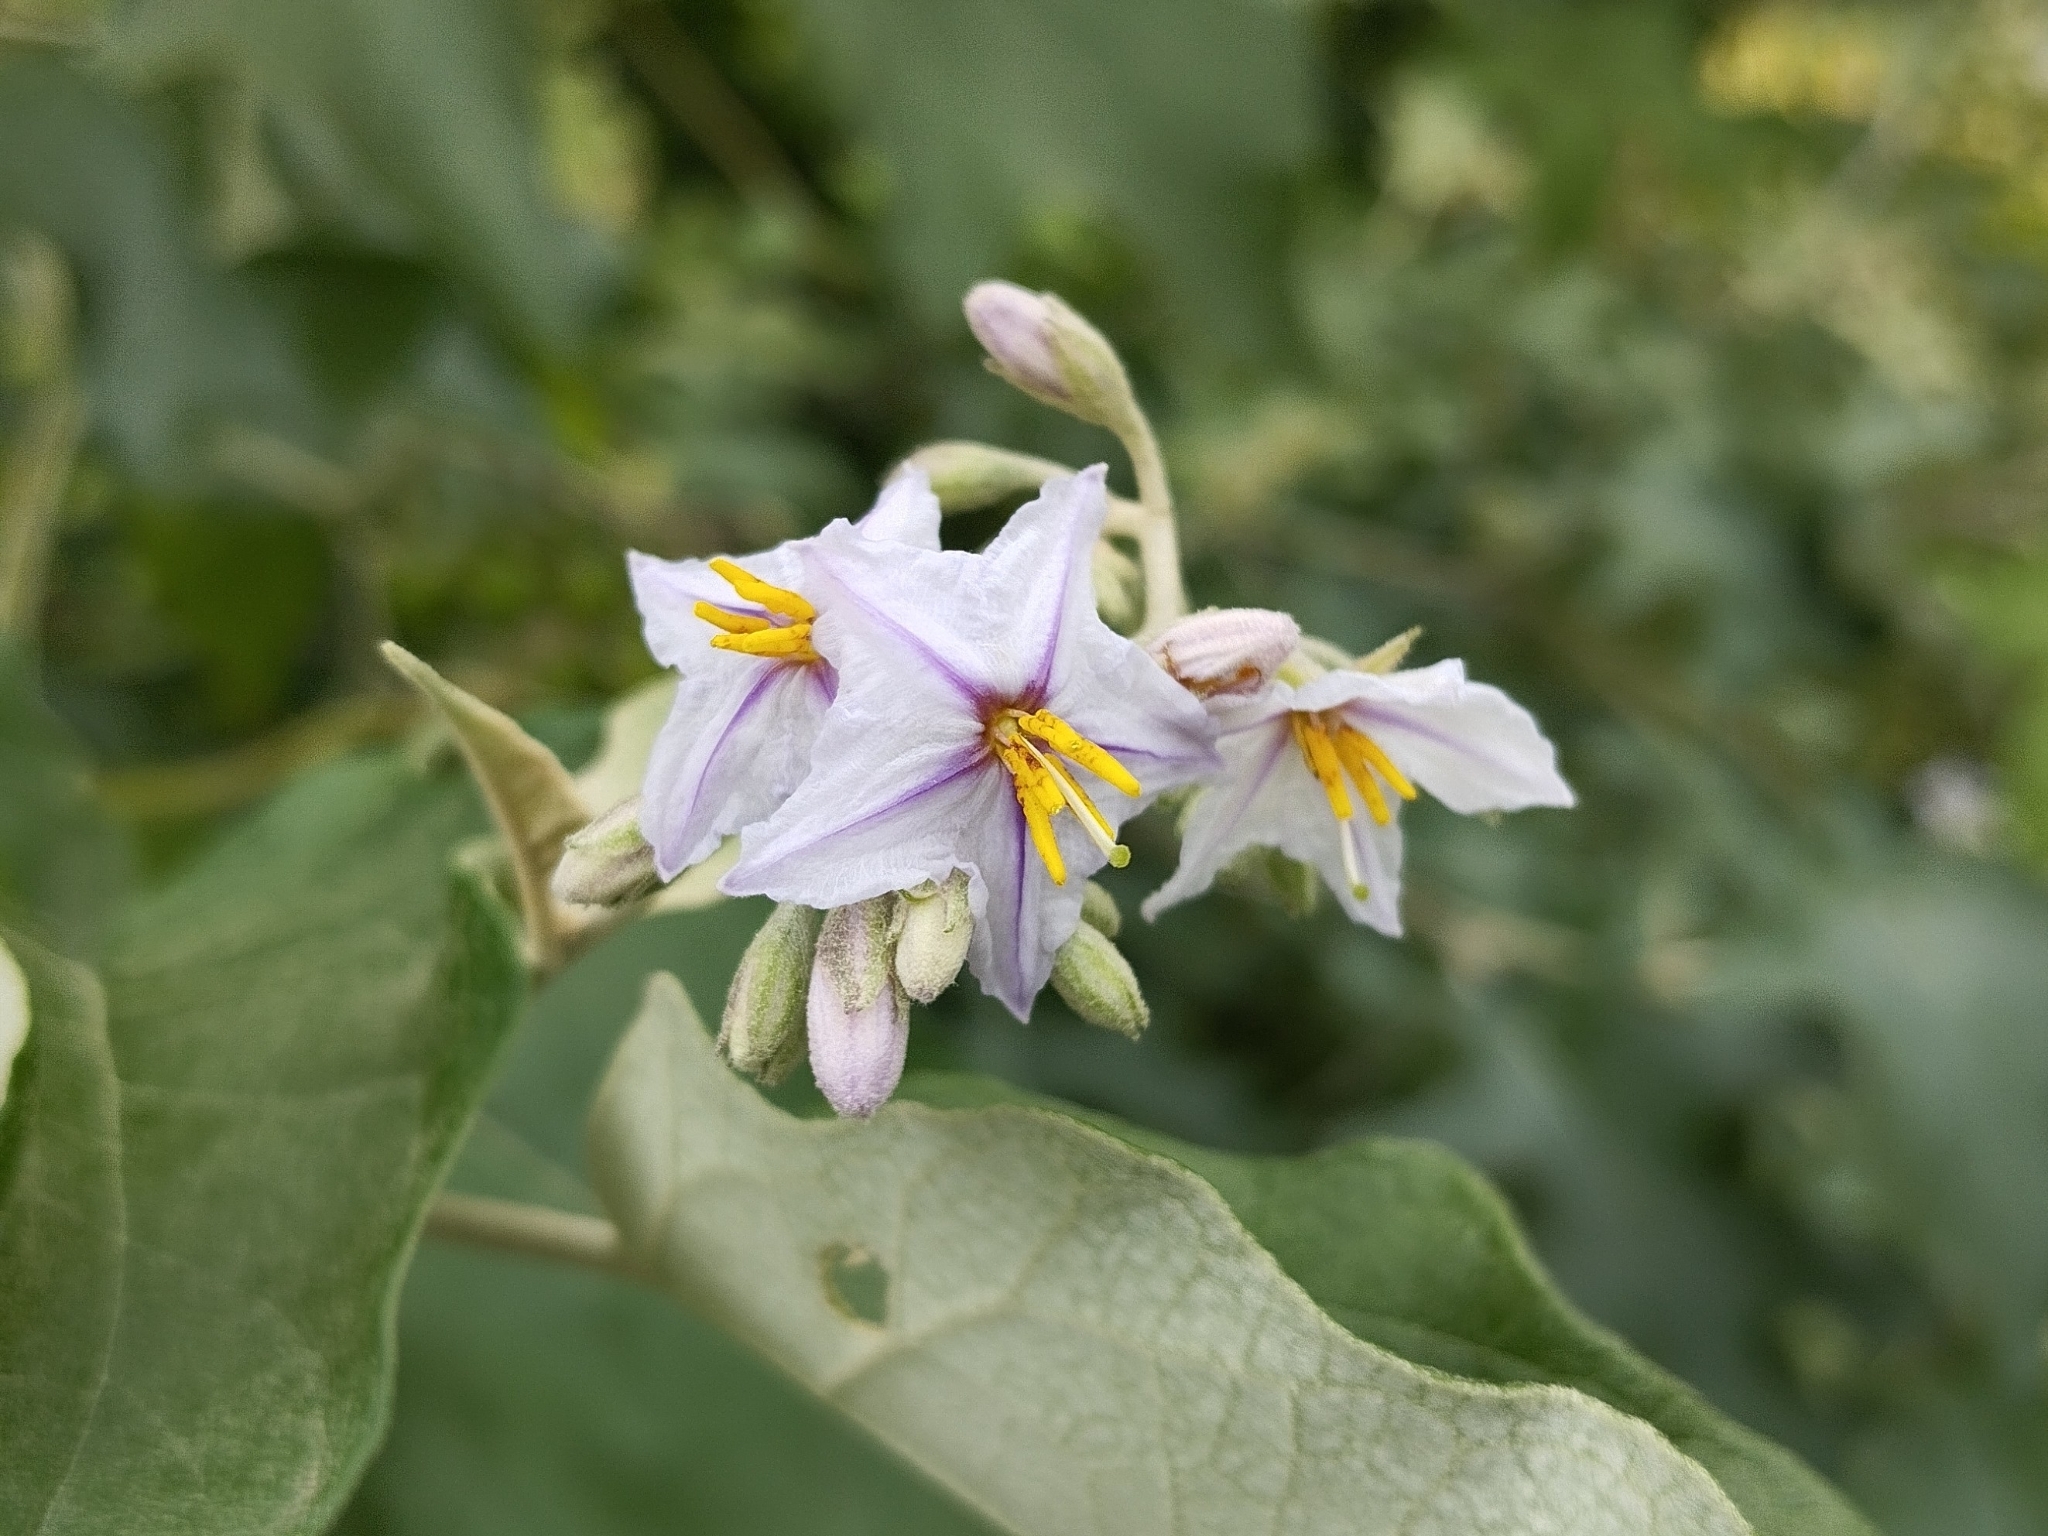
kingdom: Plantae
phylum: Tracheophyta
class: Magnoliopsida
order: Solanales
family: Solanaceae
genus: Solanum
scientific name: Solanum paniculatum
